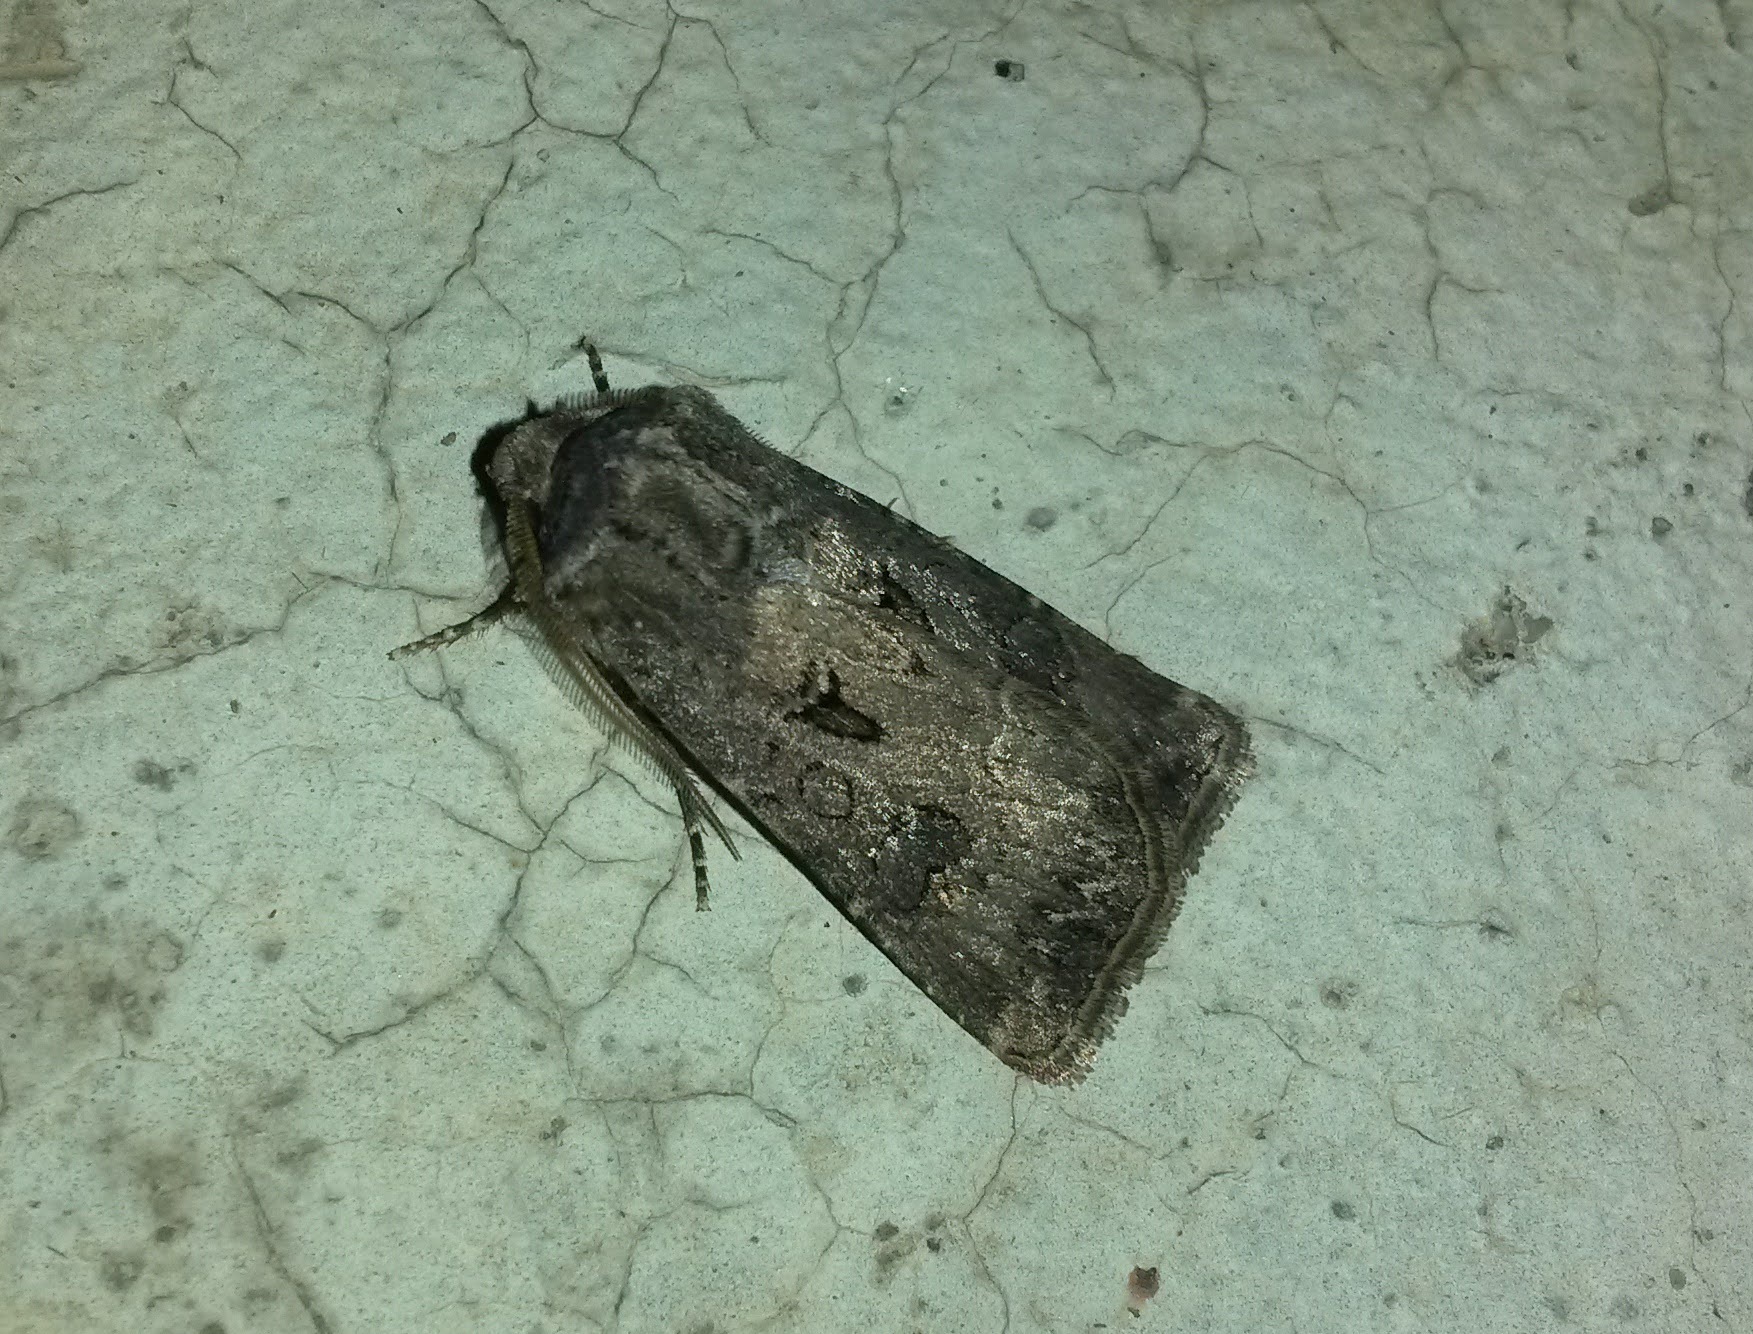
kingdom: Animalia
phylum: Arthropoda
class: Insecta
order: Lepidoptera
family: Noctuidae
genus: Agrotis
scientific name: Agrotis bigramma
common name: Great dart
